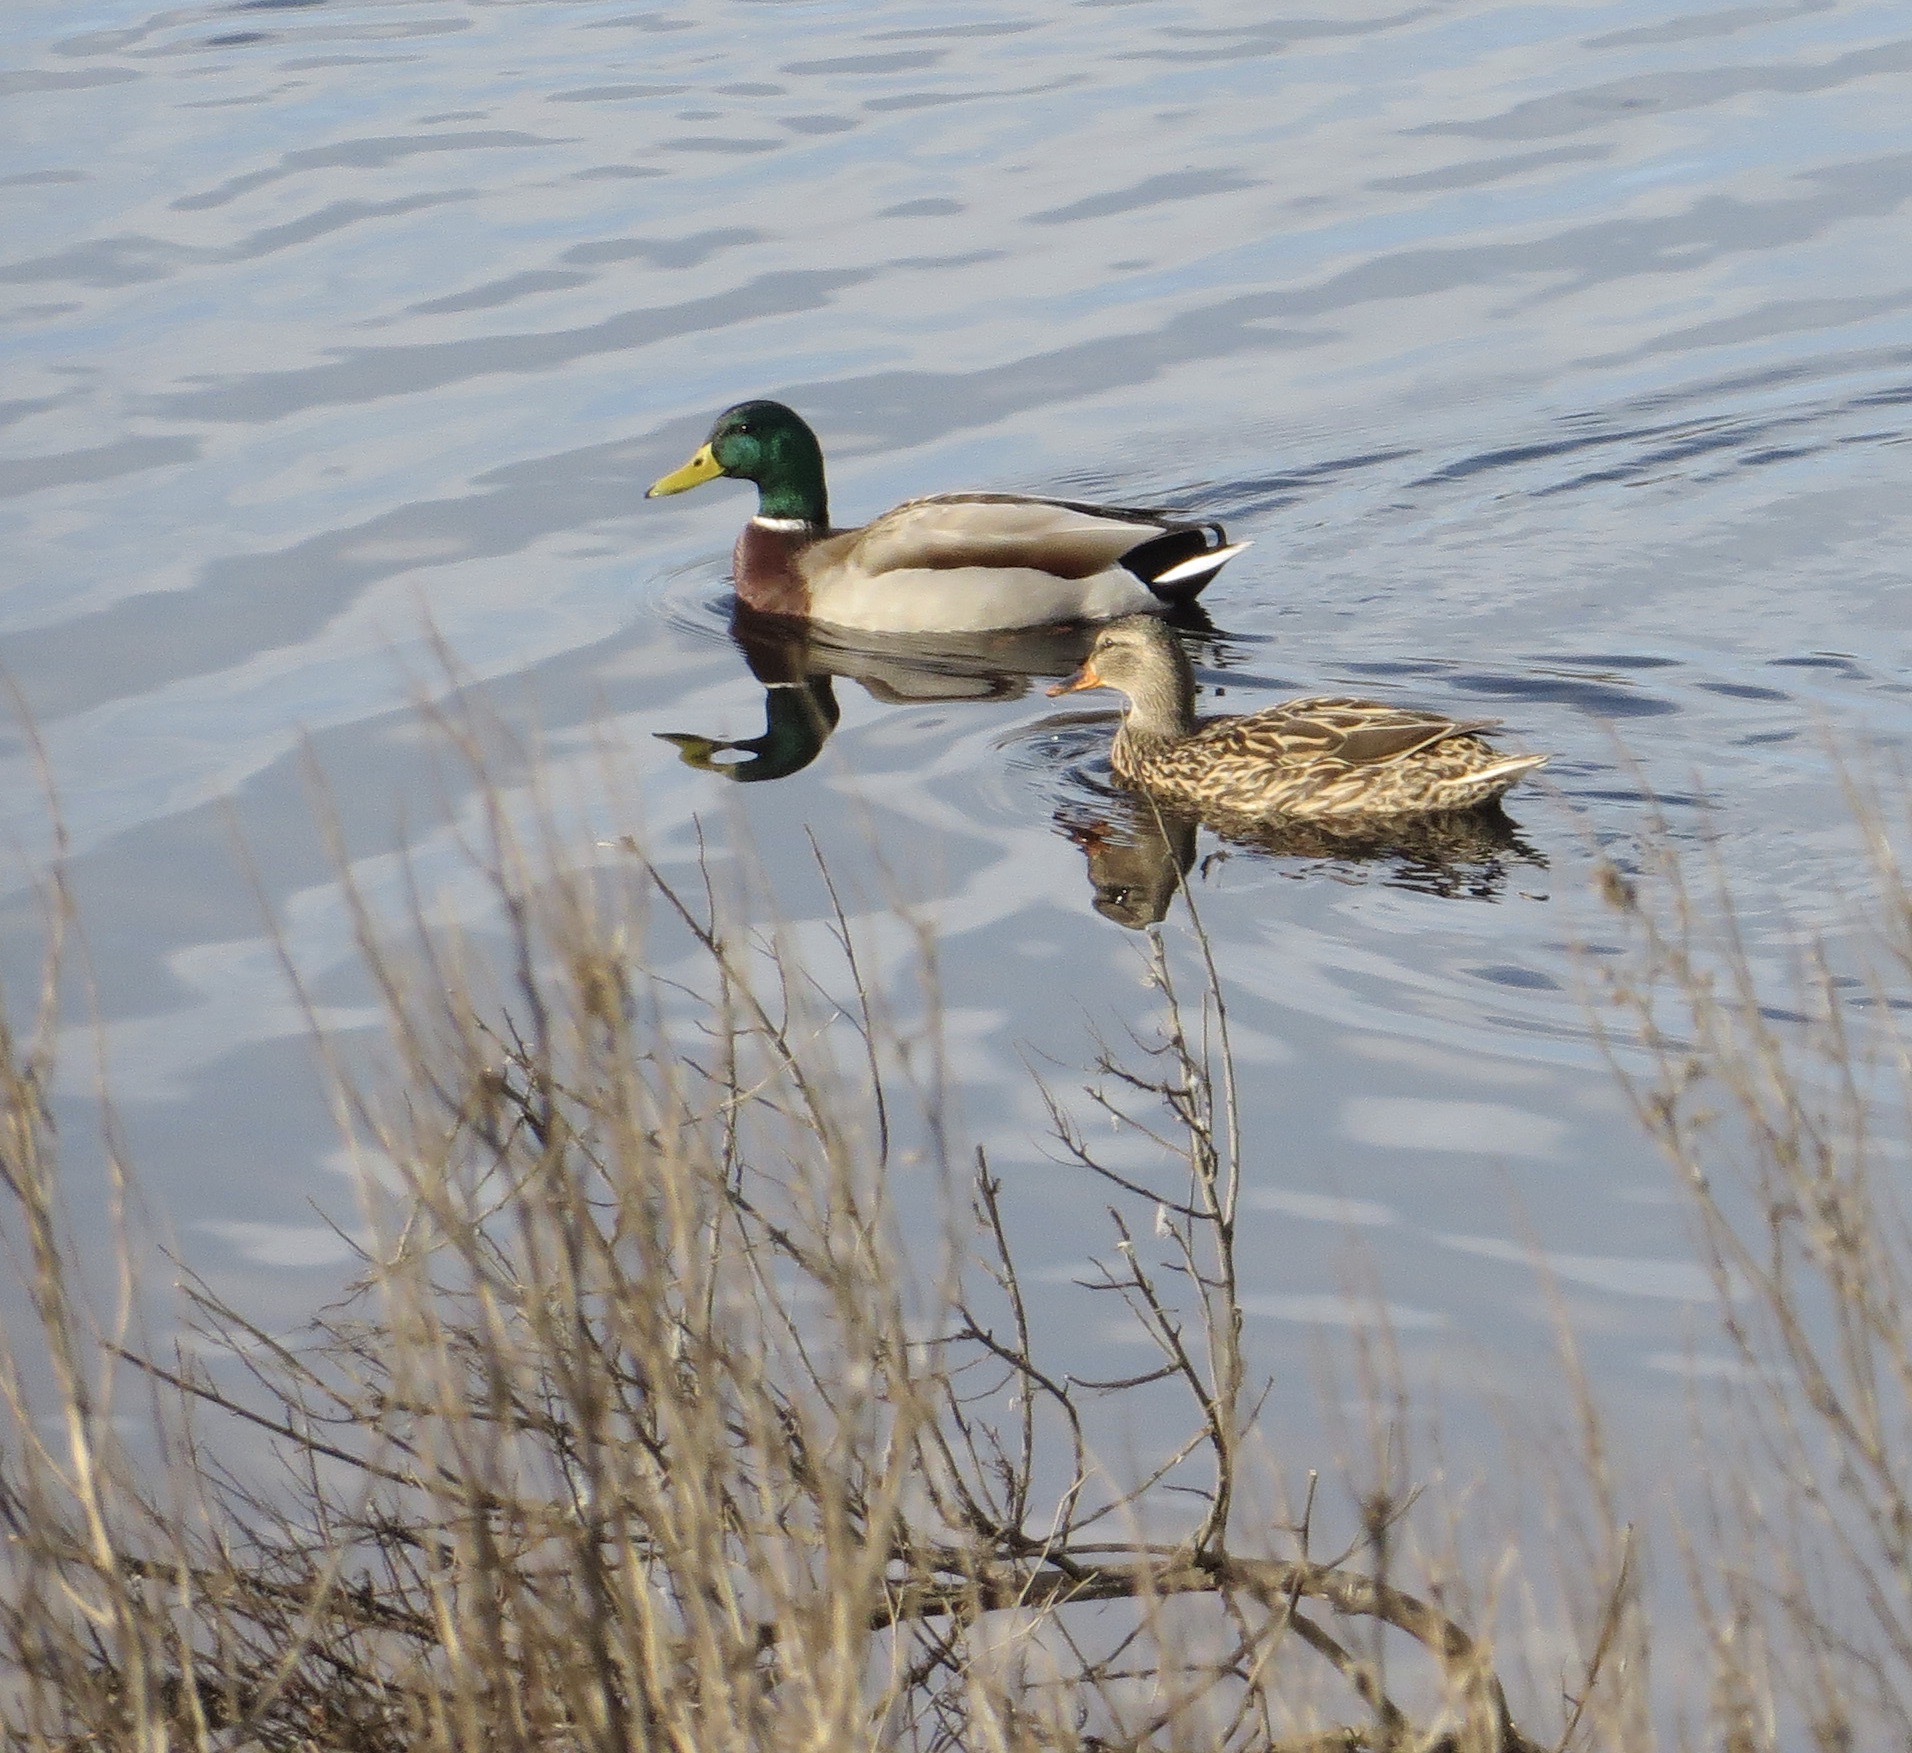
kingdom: Animalia
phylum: Chordata
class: Aves
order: Anseriformes
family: Anatidae
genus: Anas
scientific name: Anas platyrhynchos
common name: Mallard
